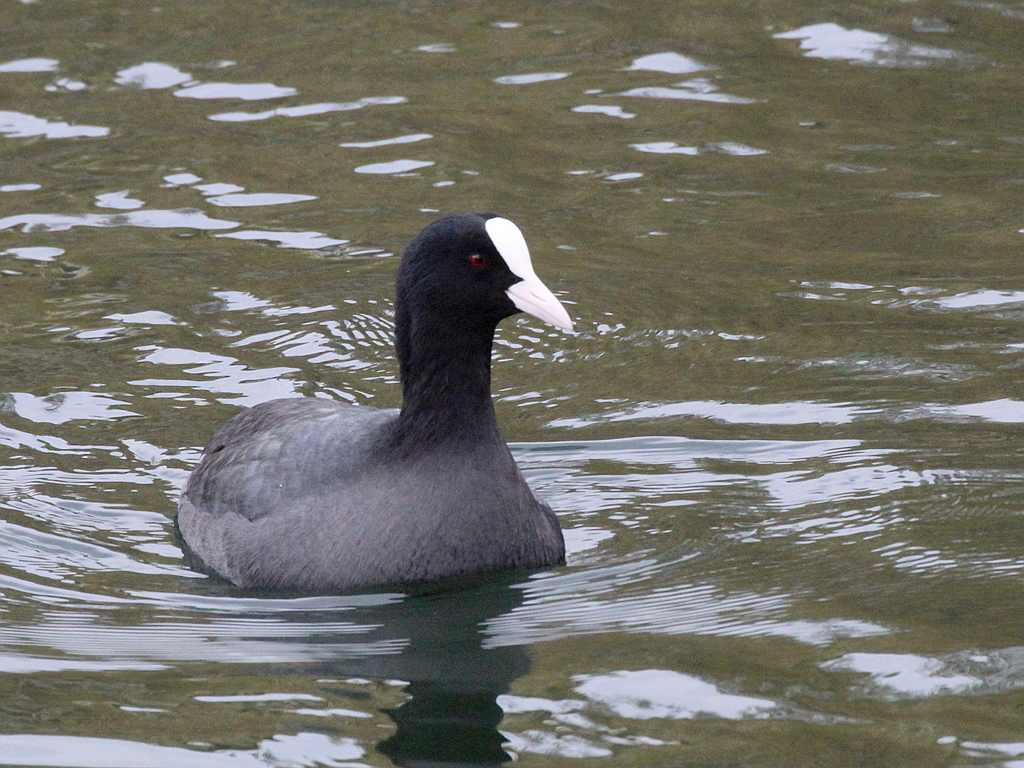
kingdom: Animalia
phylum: Chordata
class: Aves
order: Gruiformes
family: Rallidae
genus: Fulica
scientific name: Fulica atra
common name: Eurasian coot
